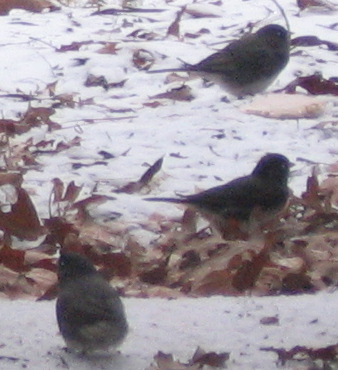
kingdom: Animalia
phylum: Chordata
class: Aves
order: Passeriformes
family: Passerellidae
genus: Junco
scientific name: Junco hyemalis
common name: Dark-eyed junco
